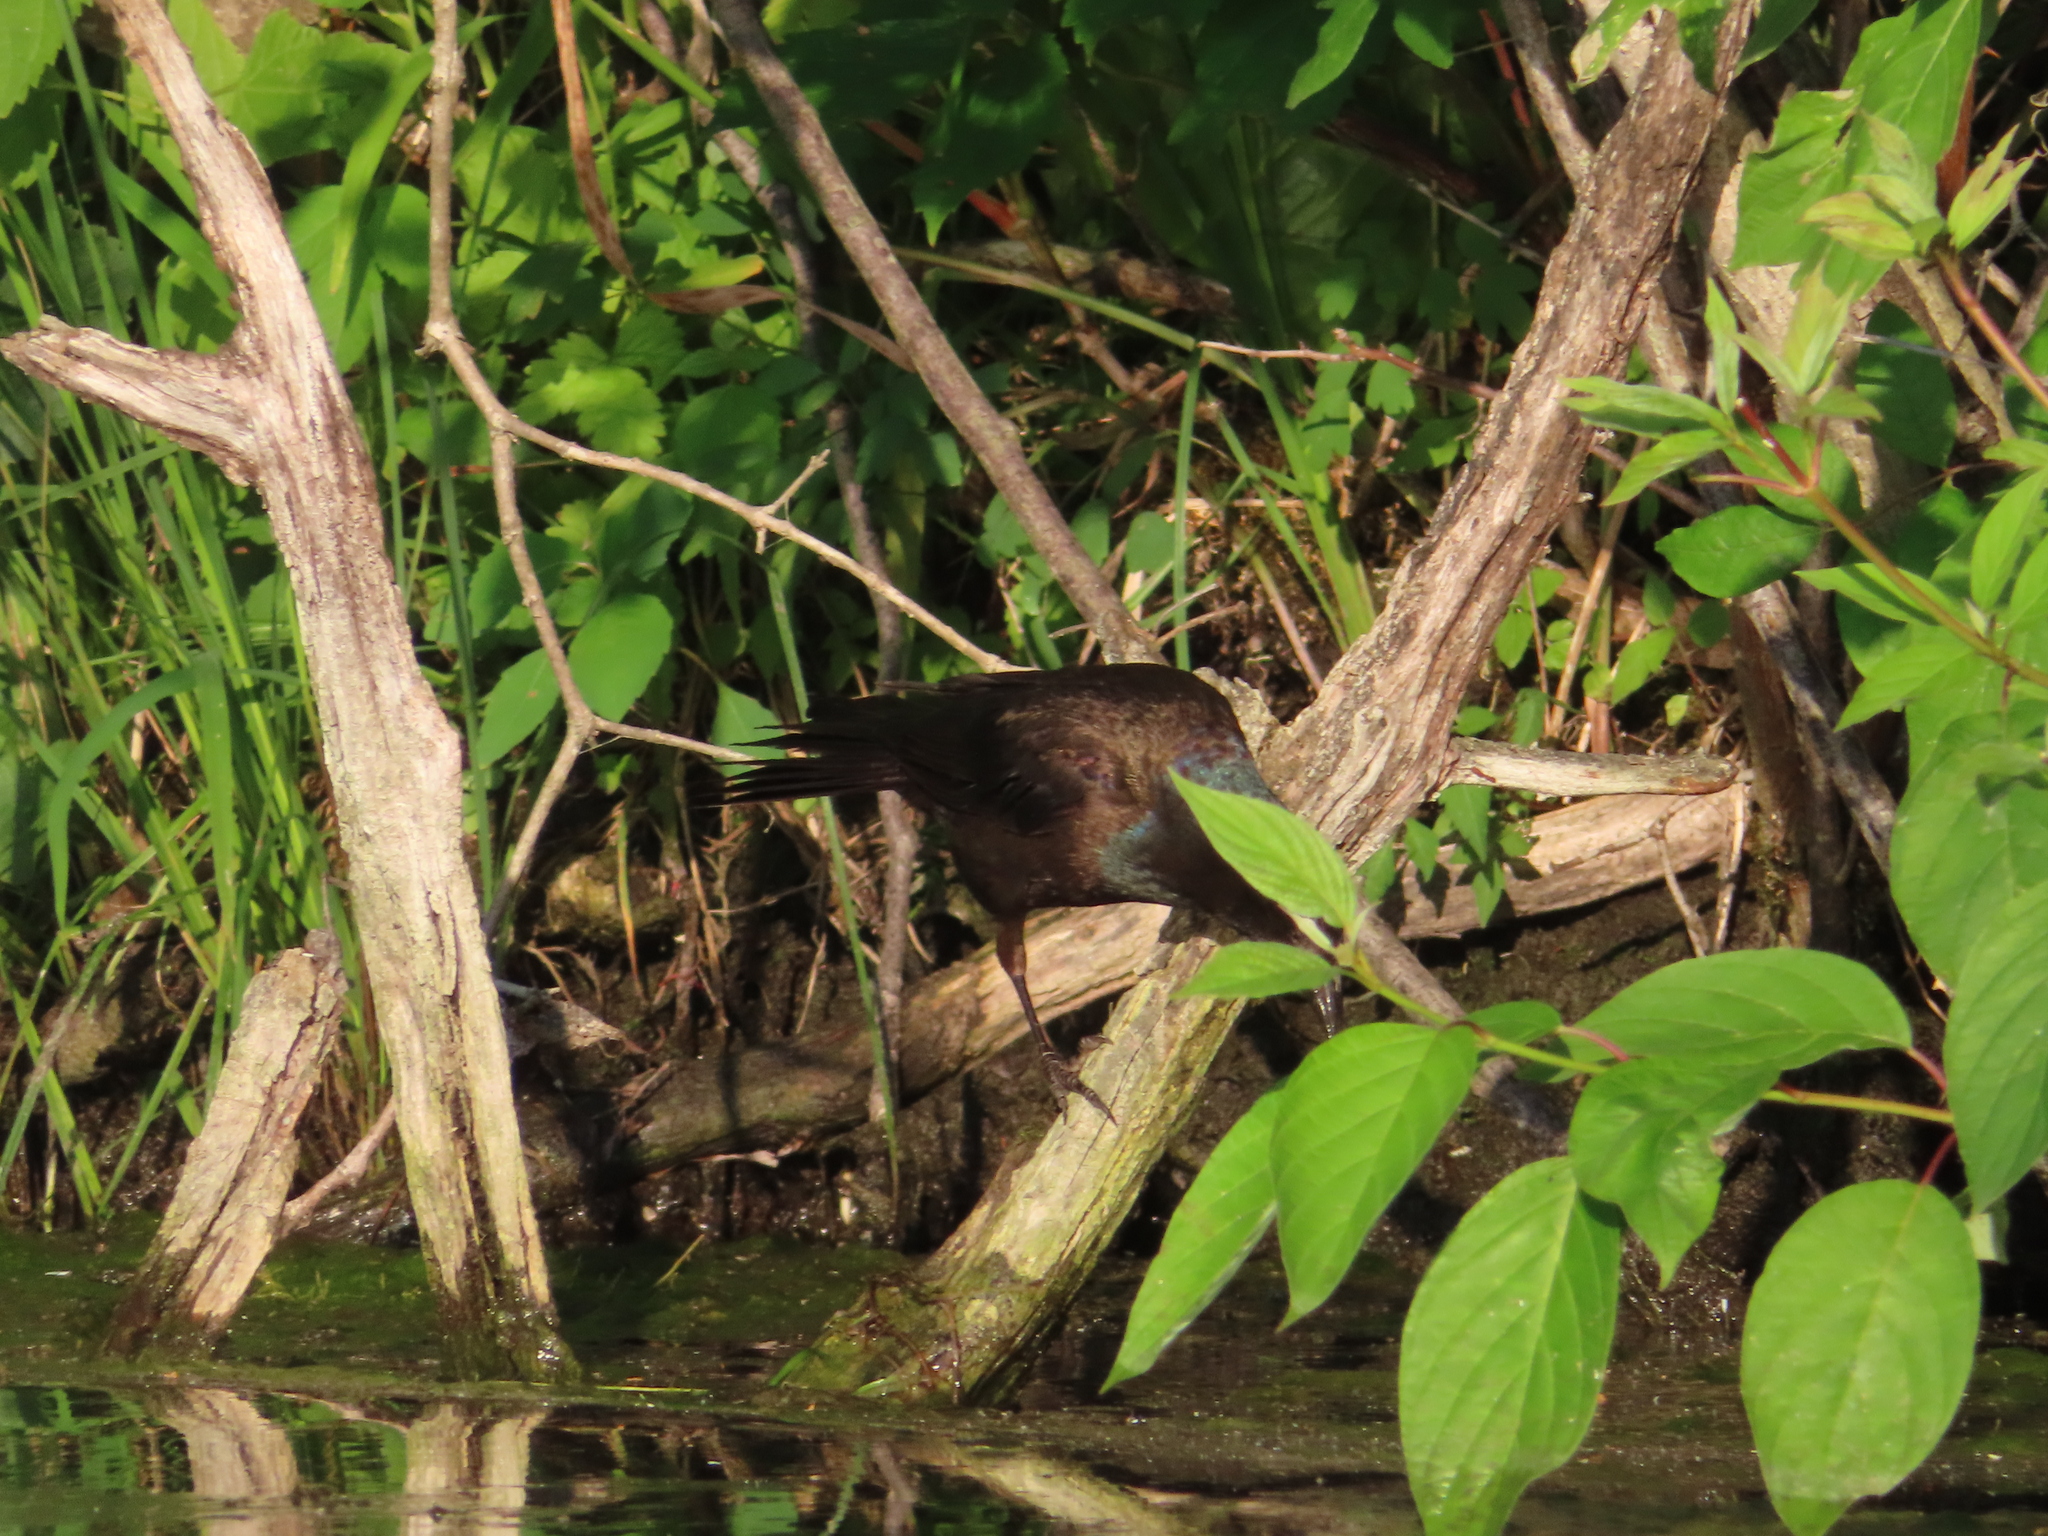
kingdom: Animalia
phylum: Chordata
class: Aves
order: Passeriformes
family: Icteridae
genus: Quiscalus
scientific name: Quiscalus quiscula
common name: Common grackle
